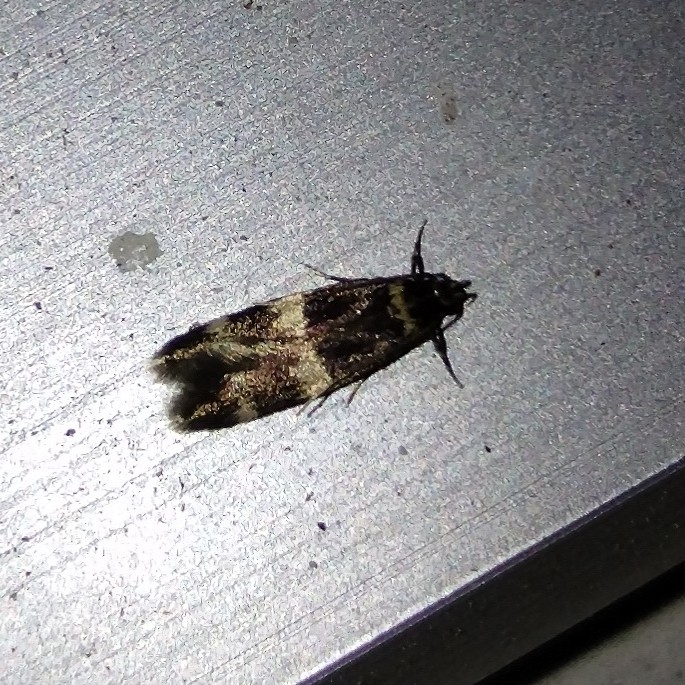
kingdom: Animalia
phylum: Arthropoda
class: Insecta
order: Lepidoptera
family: Autostichidae
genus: Oegoconia
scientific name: Oegoconia quadripuncta
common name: Four-spotted obscure
